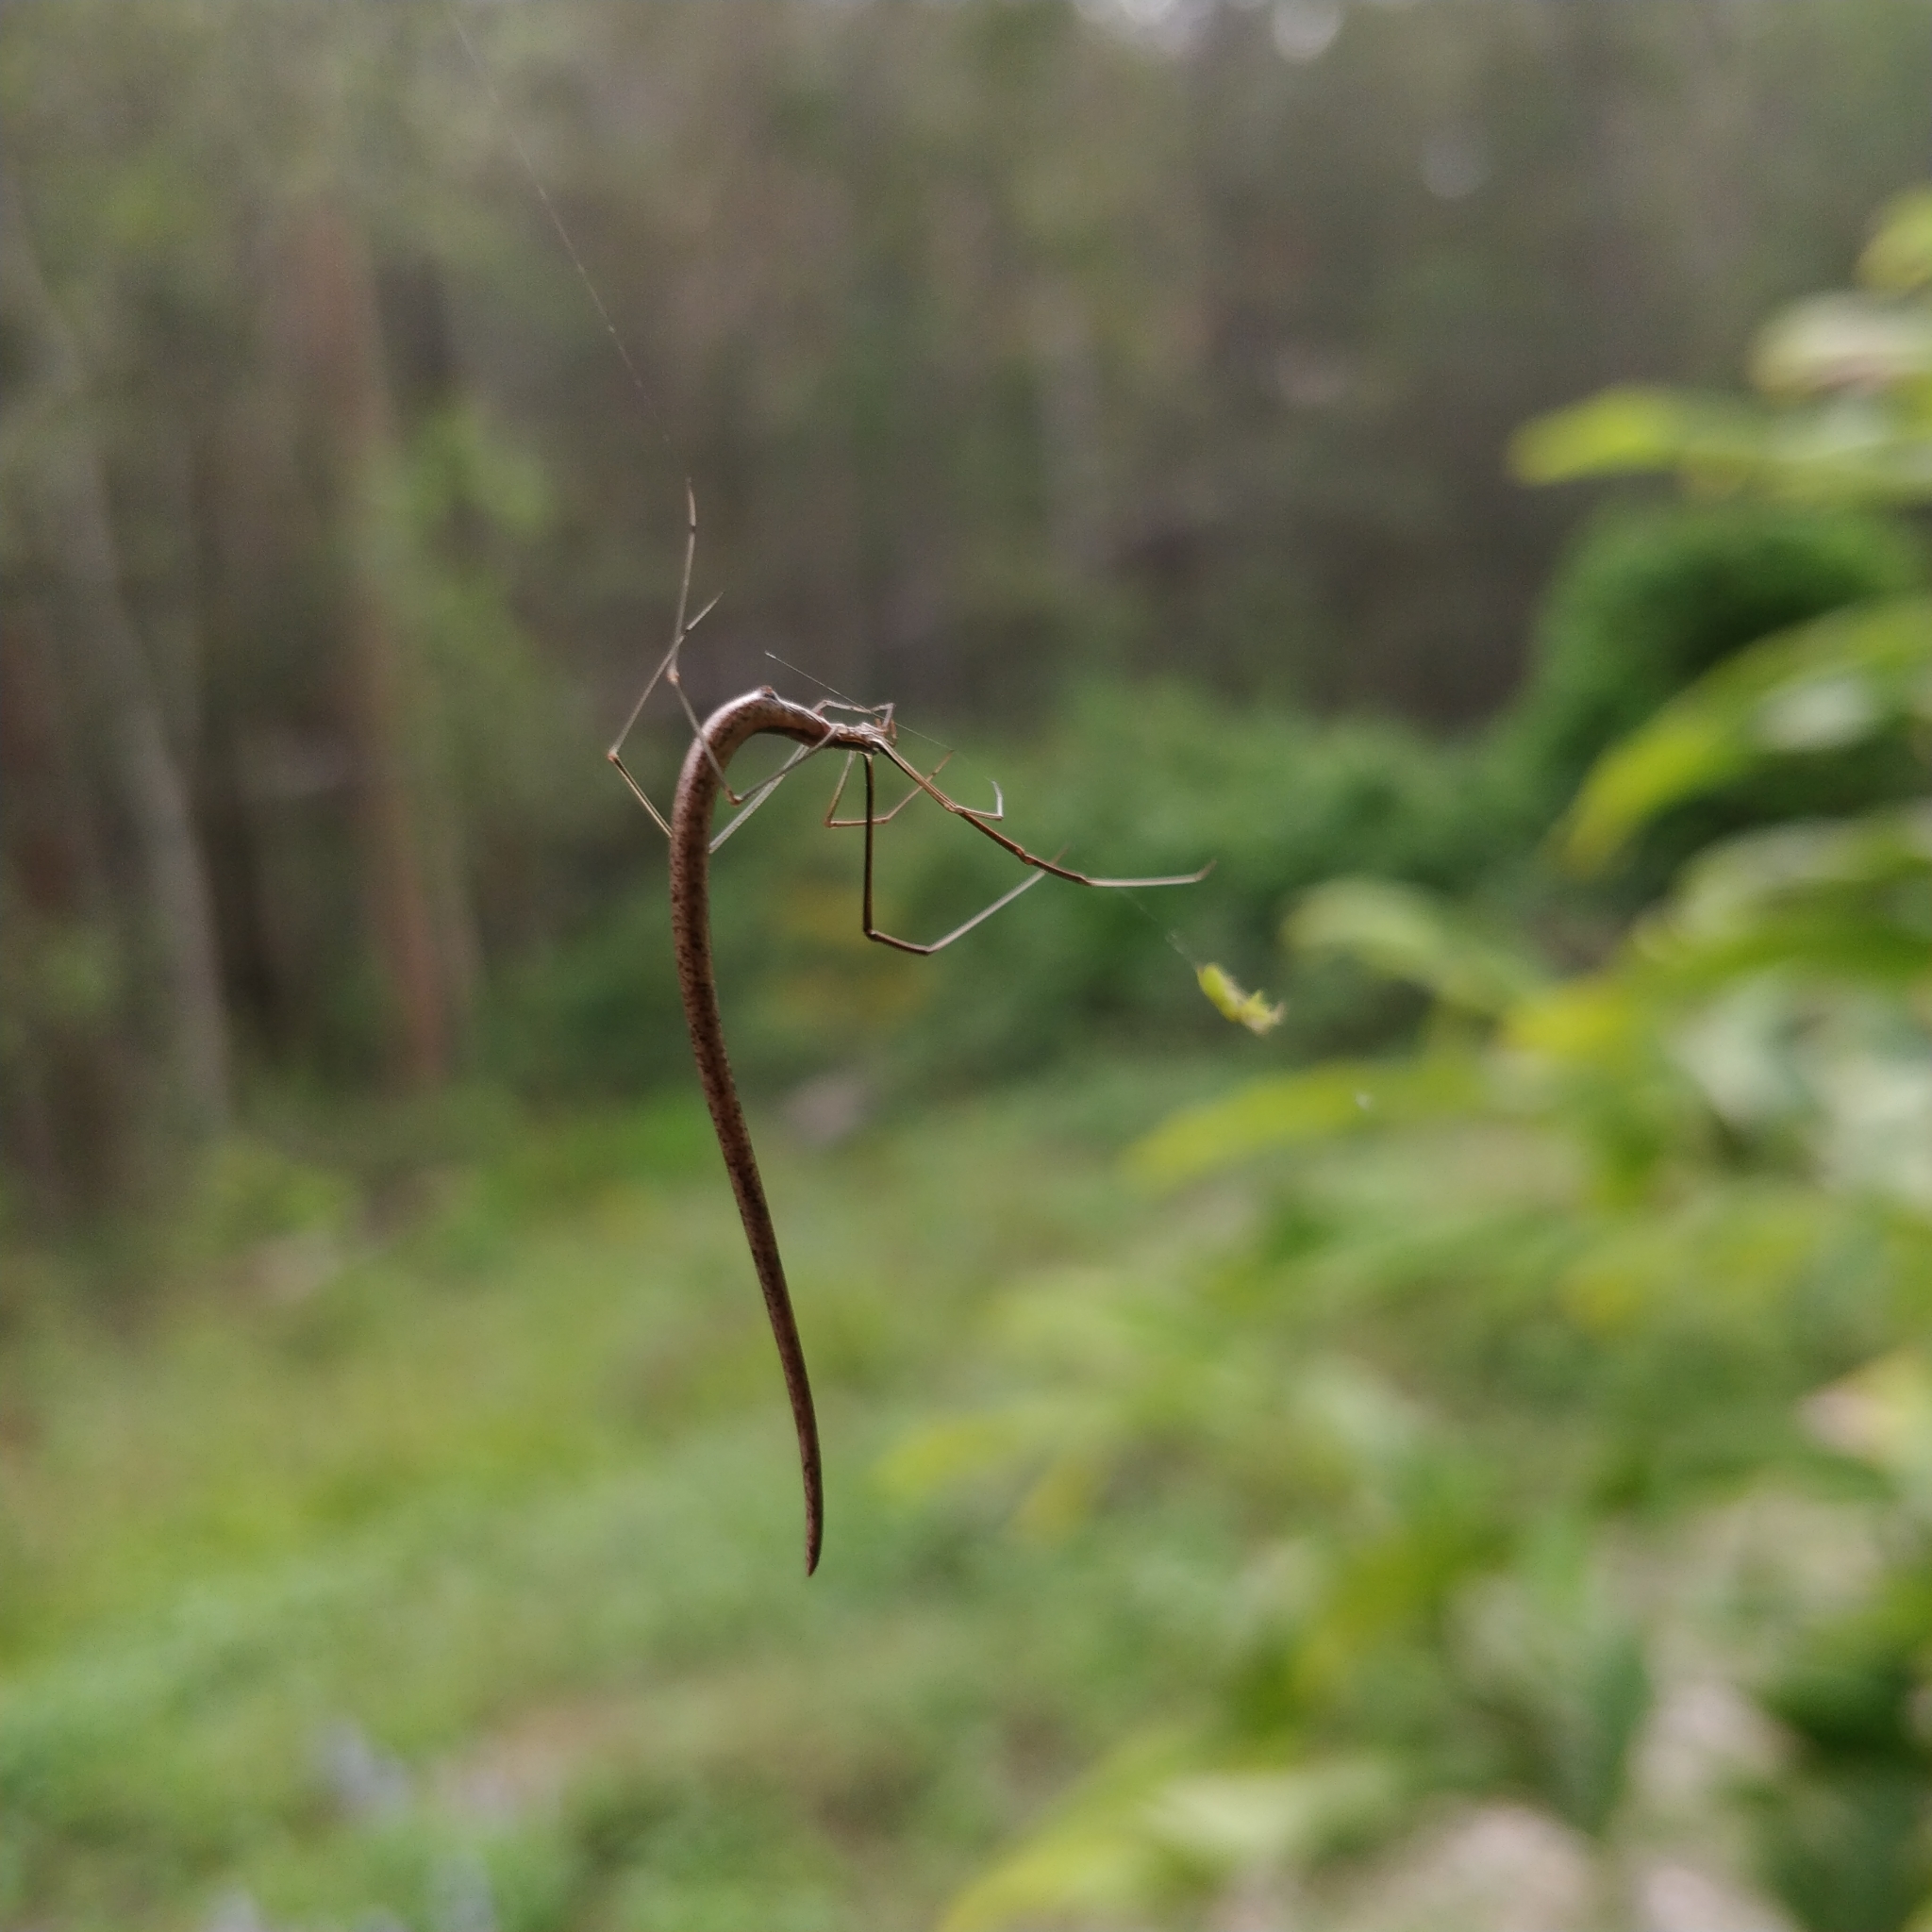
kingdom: Animalia
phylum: Arthropoda
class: Arachnida
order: Araneae
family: Theridiidae
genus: Ariamnes
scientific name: Ariamnes colubrinus
